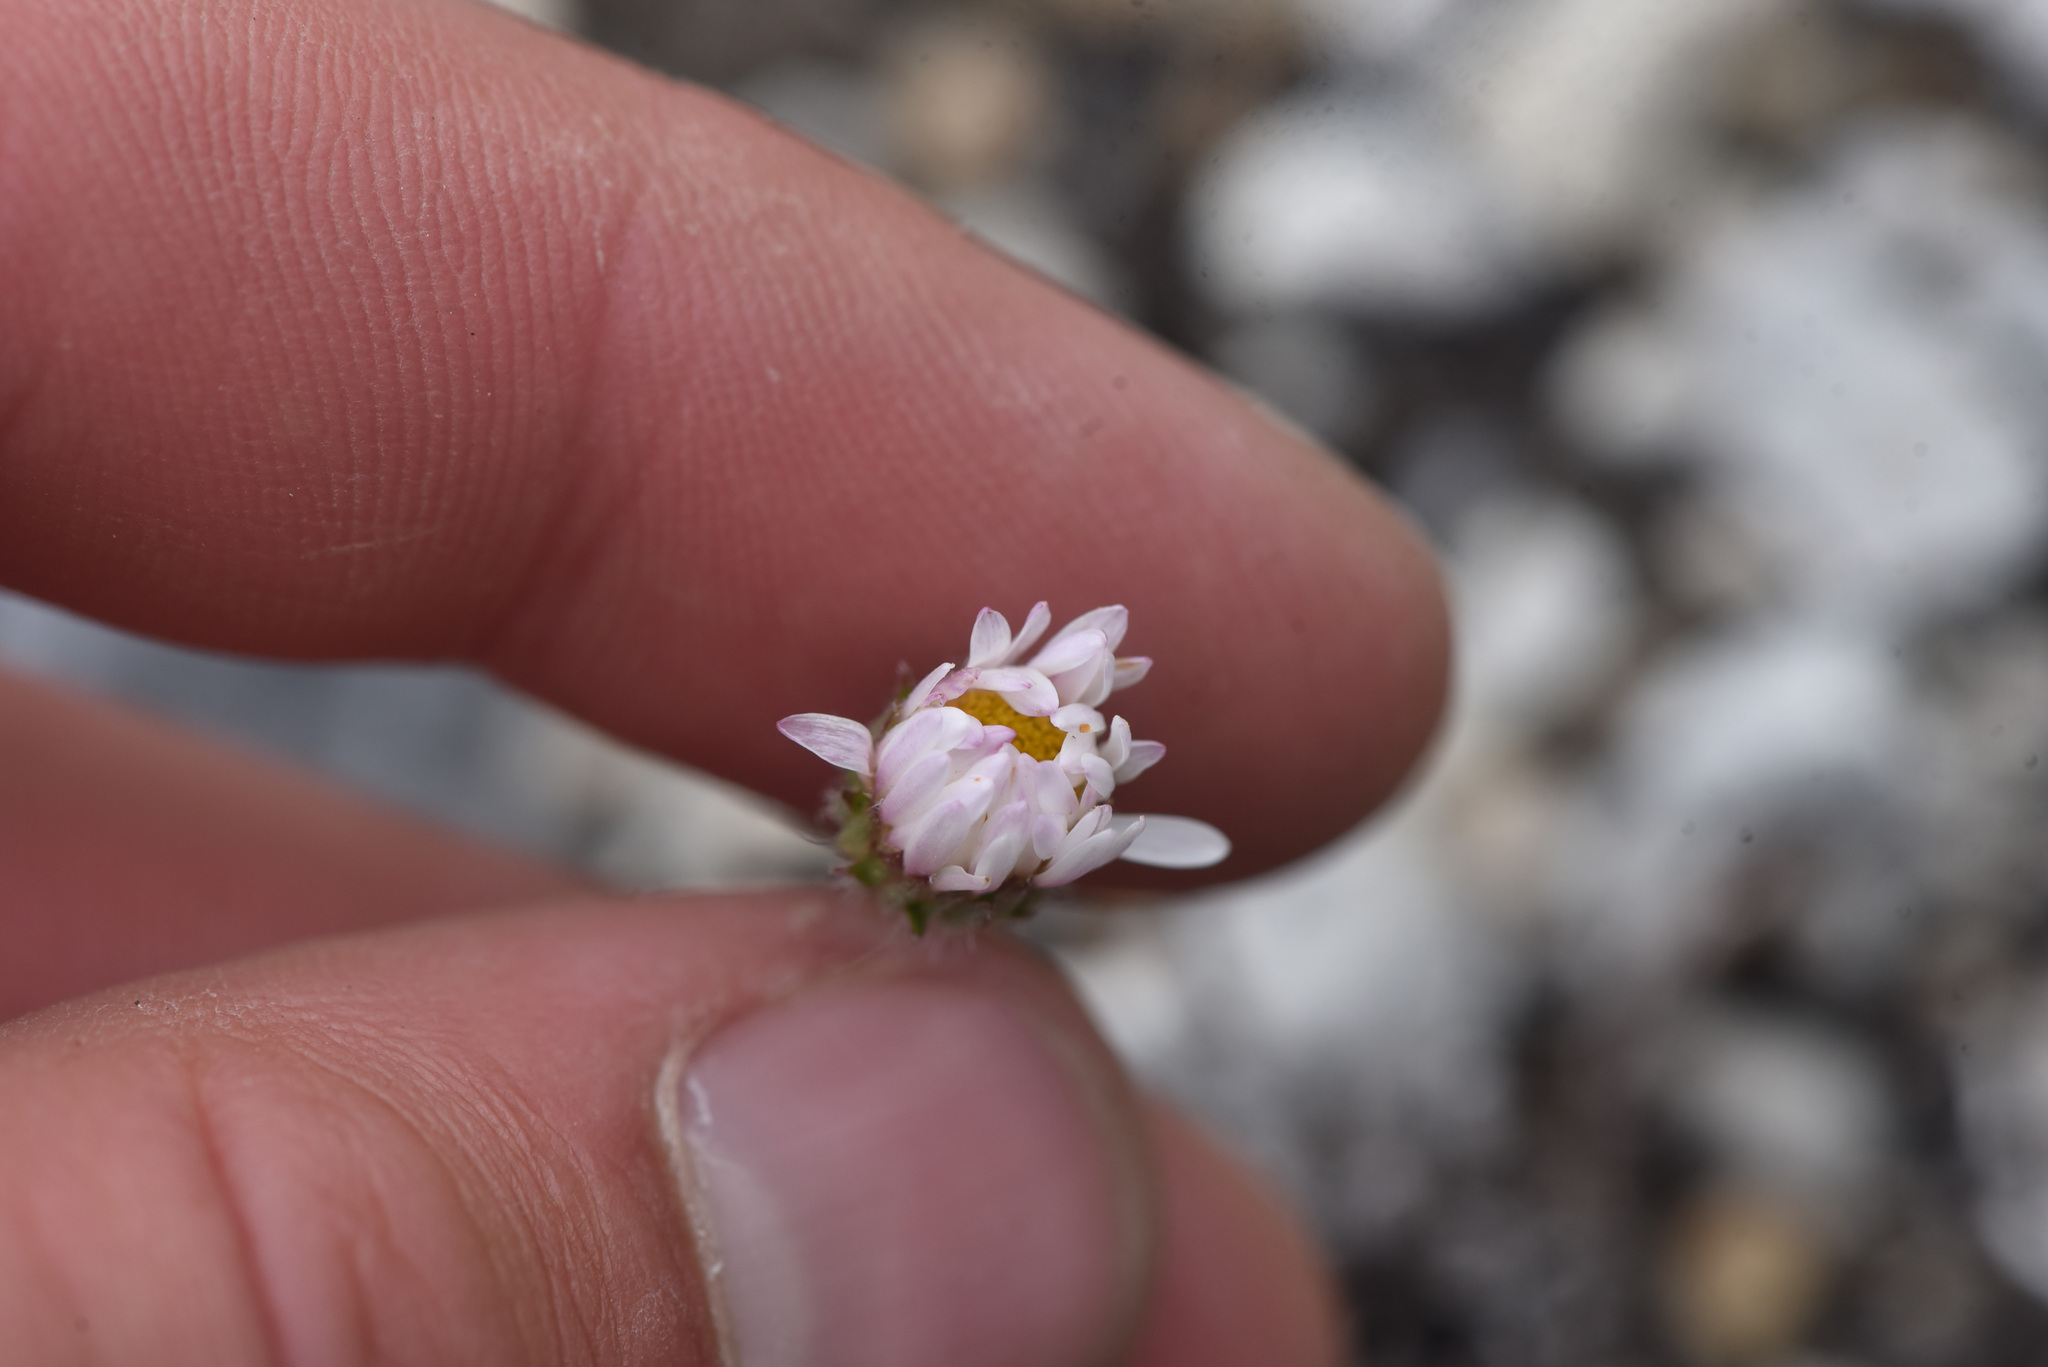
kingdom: Plantae
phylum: Tracheophyta
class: Magnoliopsida
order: Asterales
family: Asteraceae
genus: Erigeron
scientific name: Erigeron compositus
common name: Dwarf mountain fleabane
